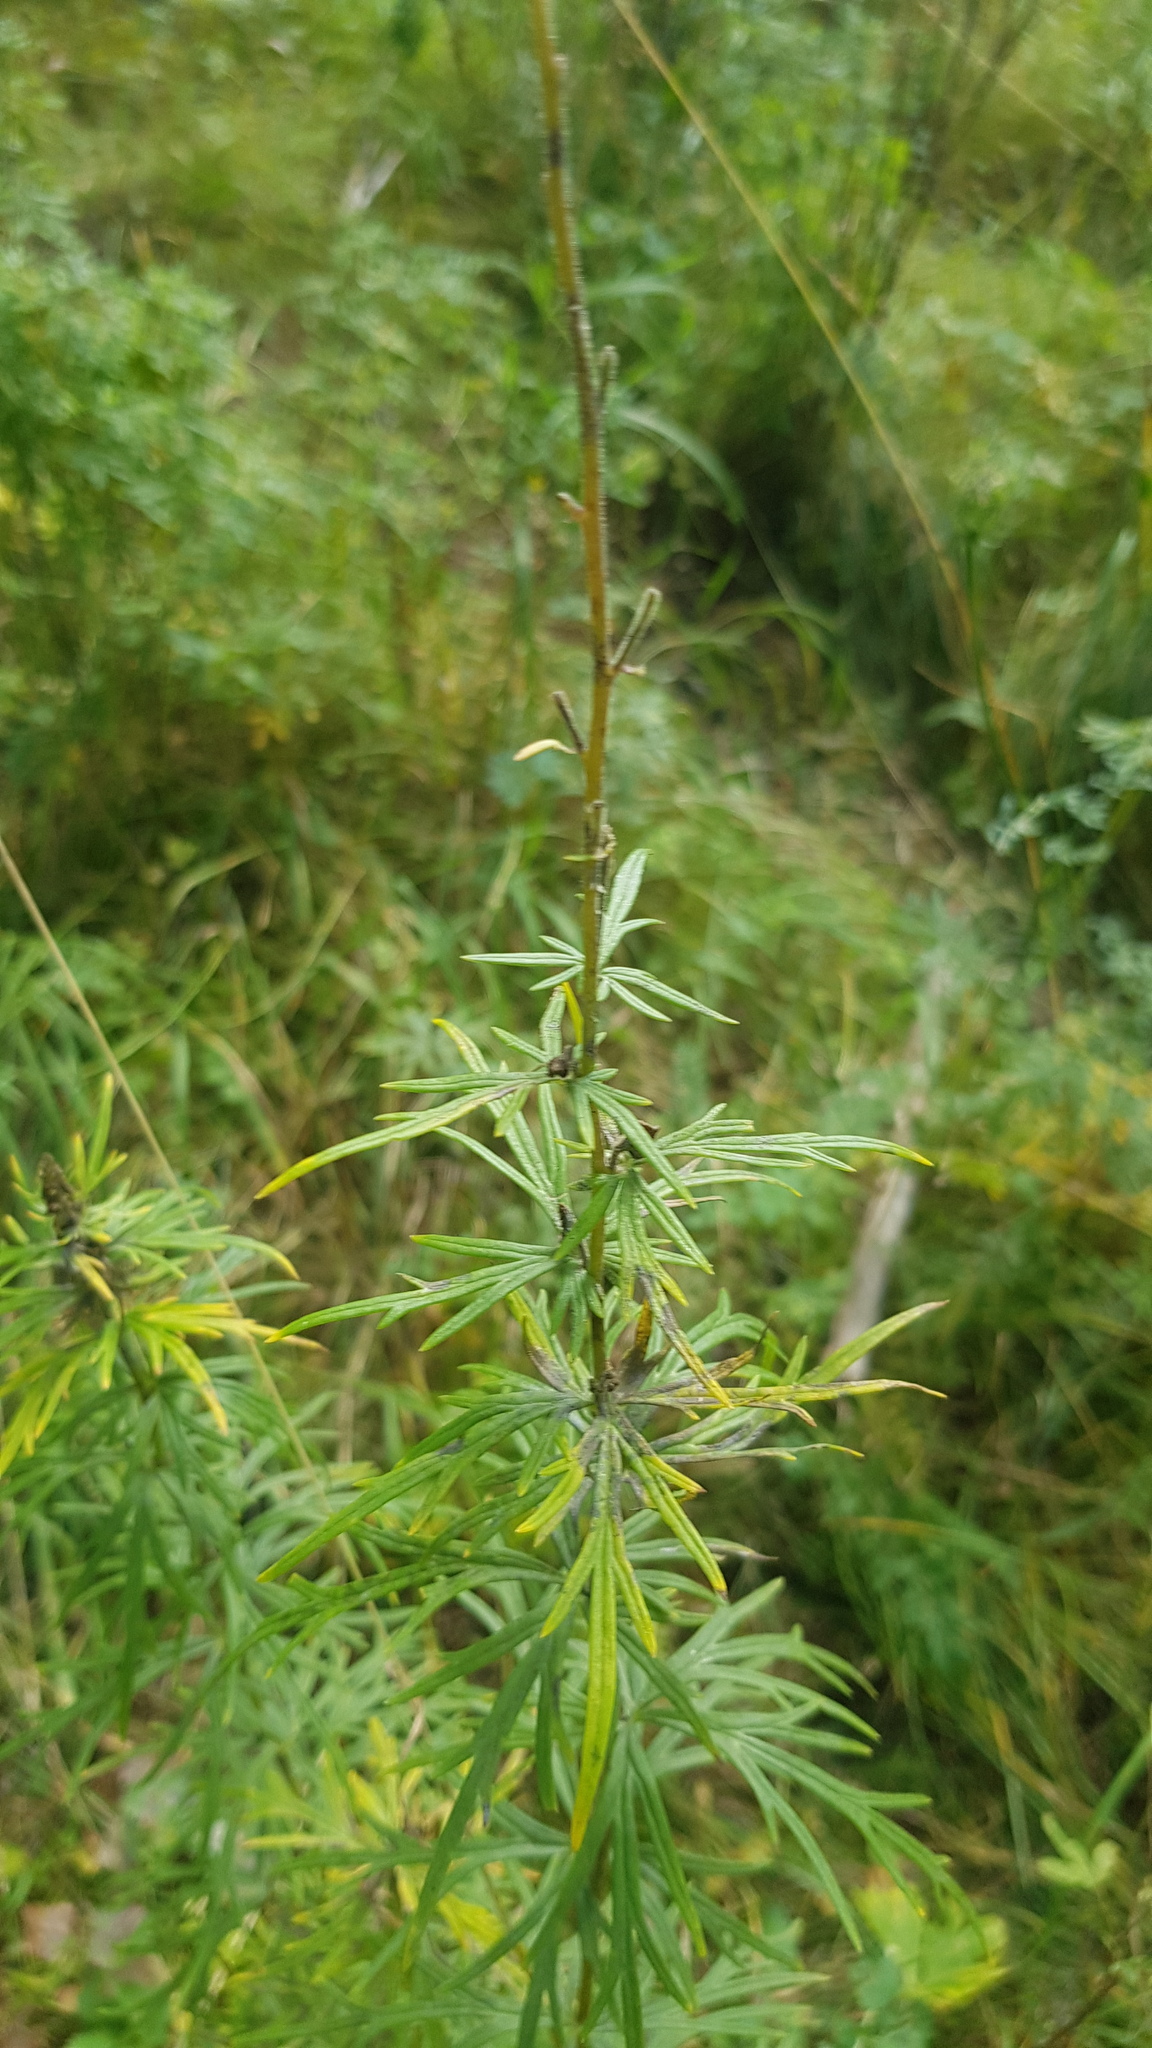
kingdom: Plantae
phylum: Tracheophyta
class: Magnoliopsida
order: Ranunculales
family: Ranunculaceae
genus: Aconitum
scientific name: Aconitum baicalense
